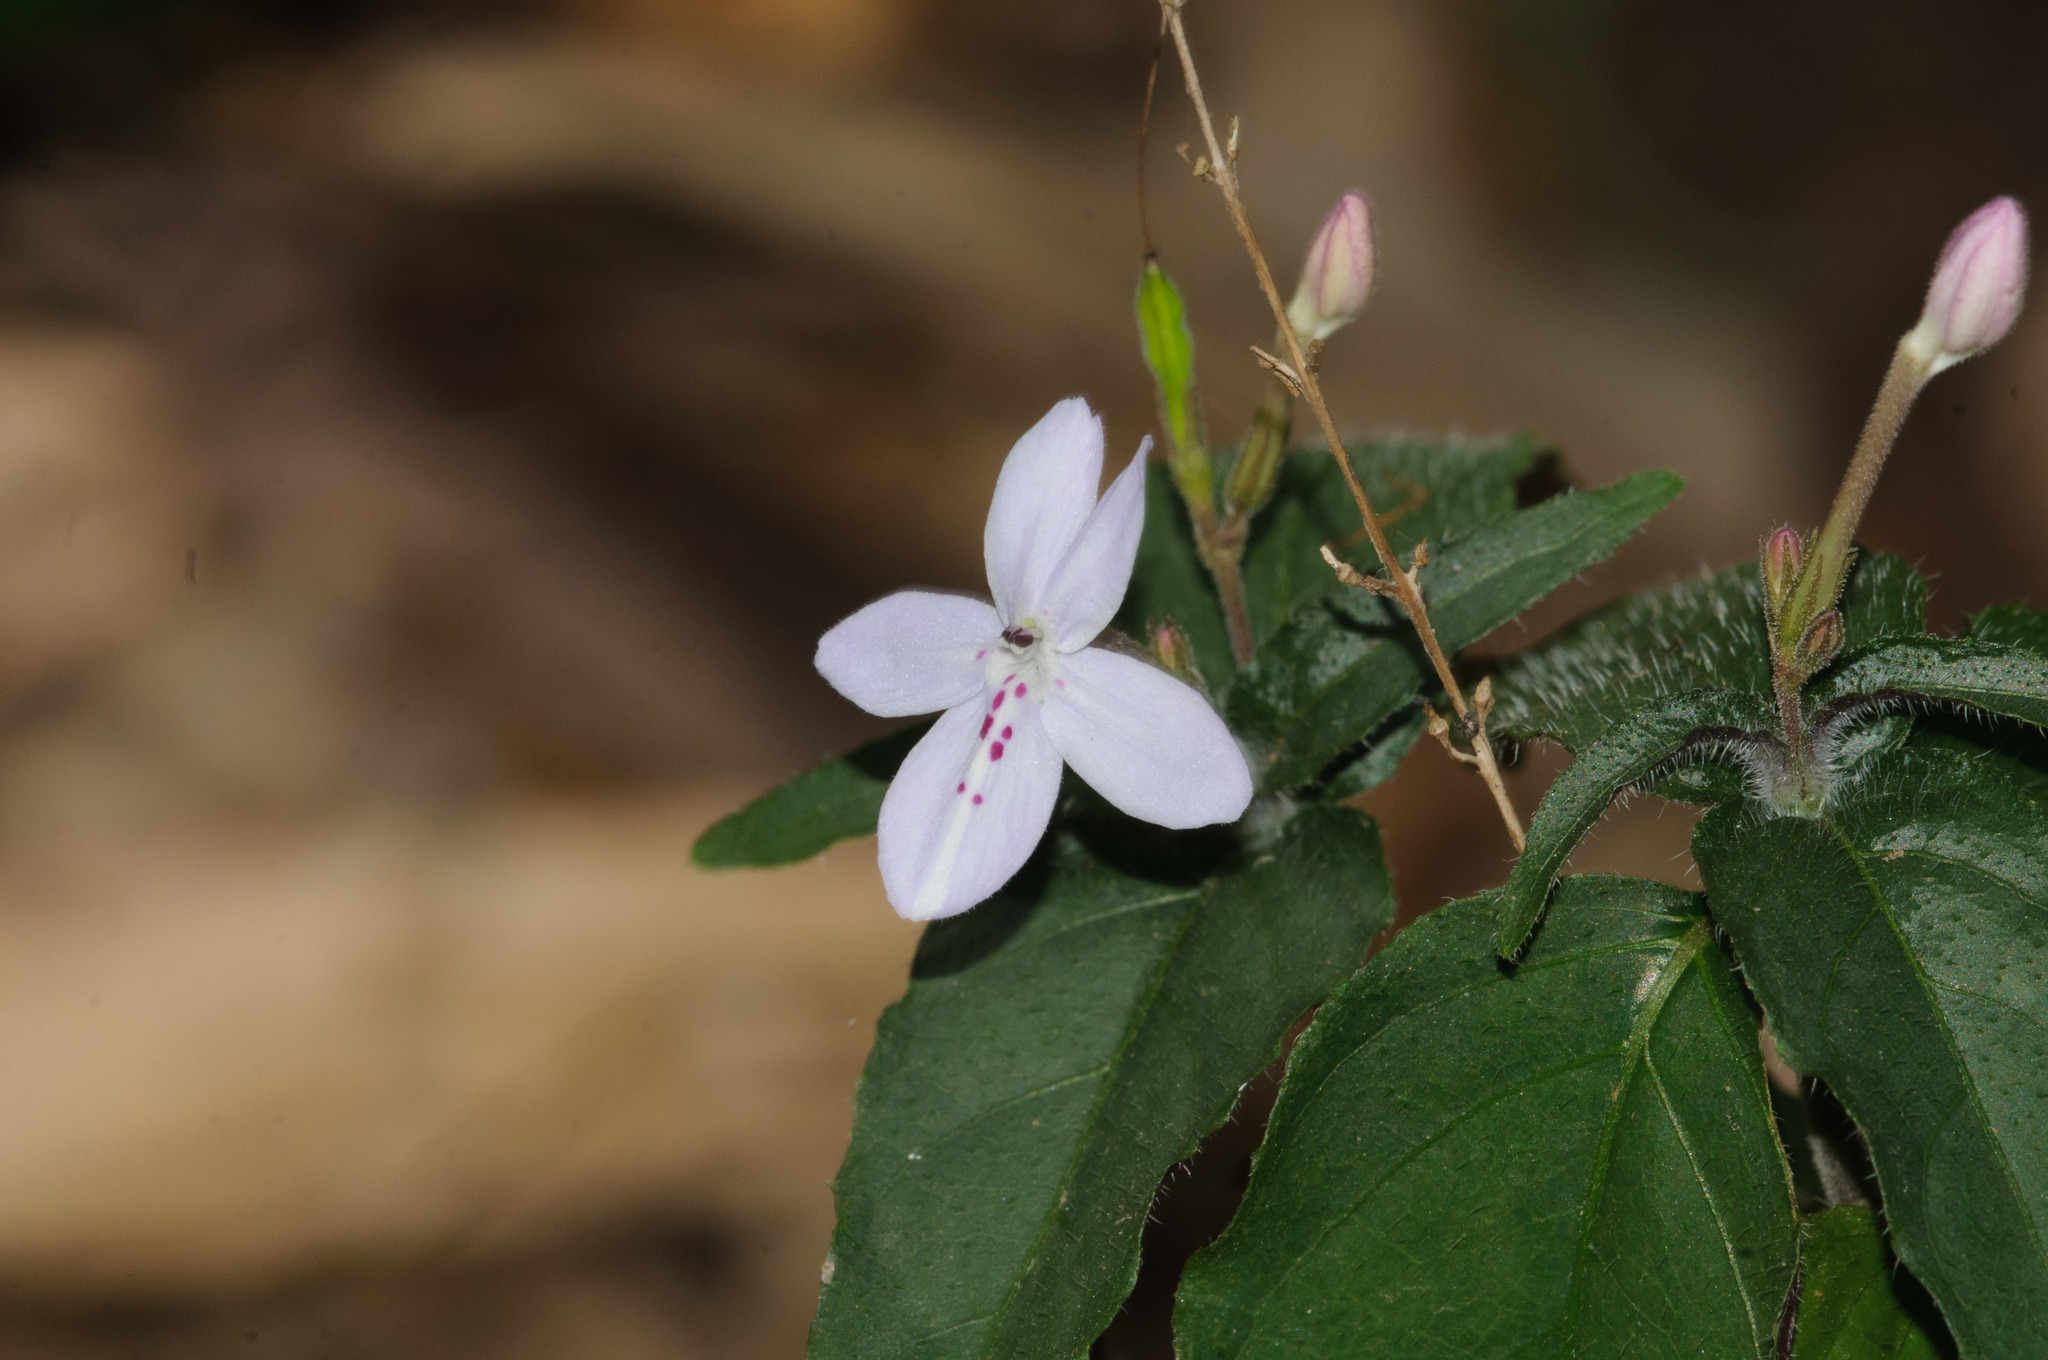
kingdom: Plantae
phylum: Tracheophyta
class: Magnoliopsida
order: Lamiales
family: Acanthaceae
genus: Pseuderanthemum
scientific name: Pseuderanthemum variabile
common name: Night and afternoon
